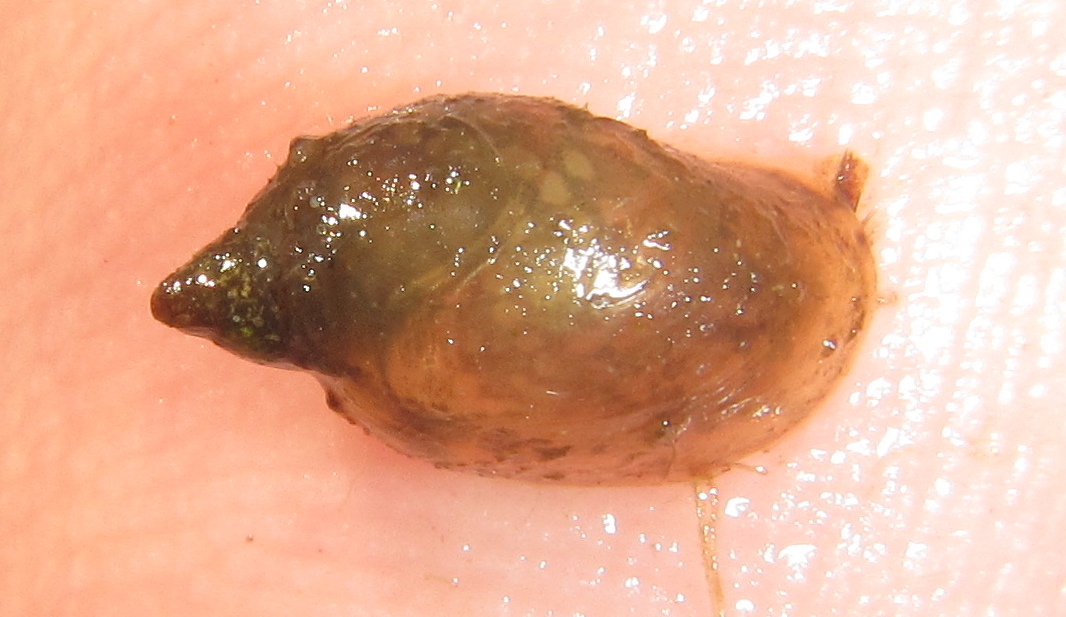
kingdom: Animalia
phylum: Mollusca
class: Gastropoda
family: Lymnaeidae
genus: Radix
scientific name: Radix natalensis
